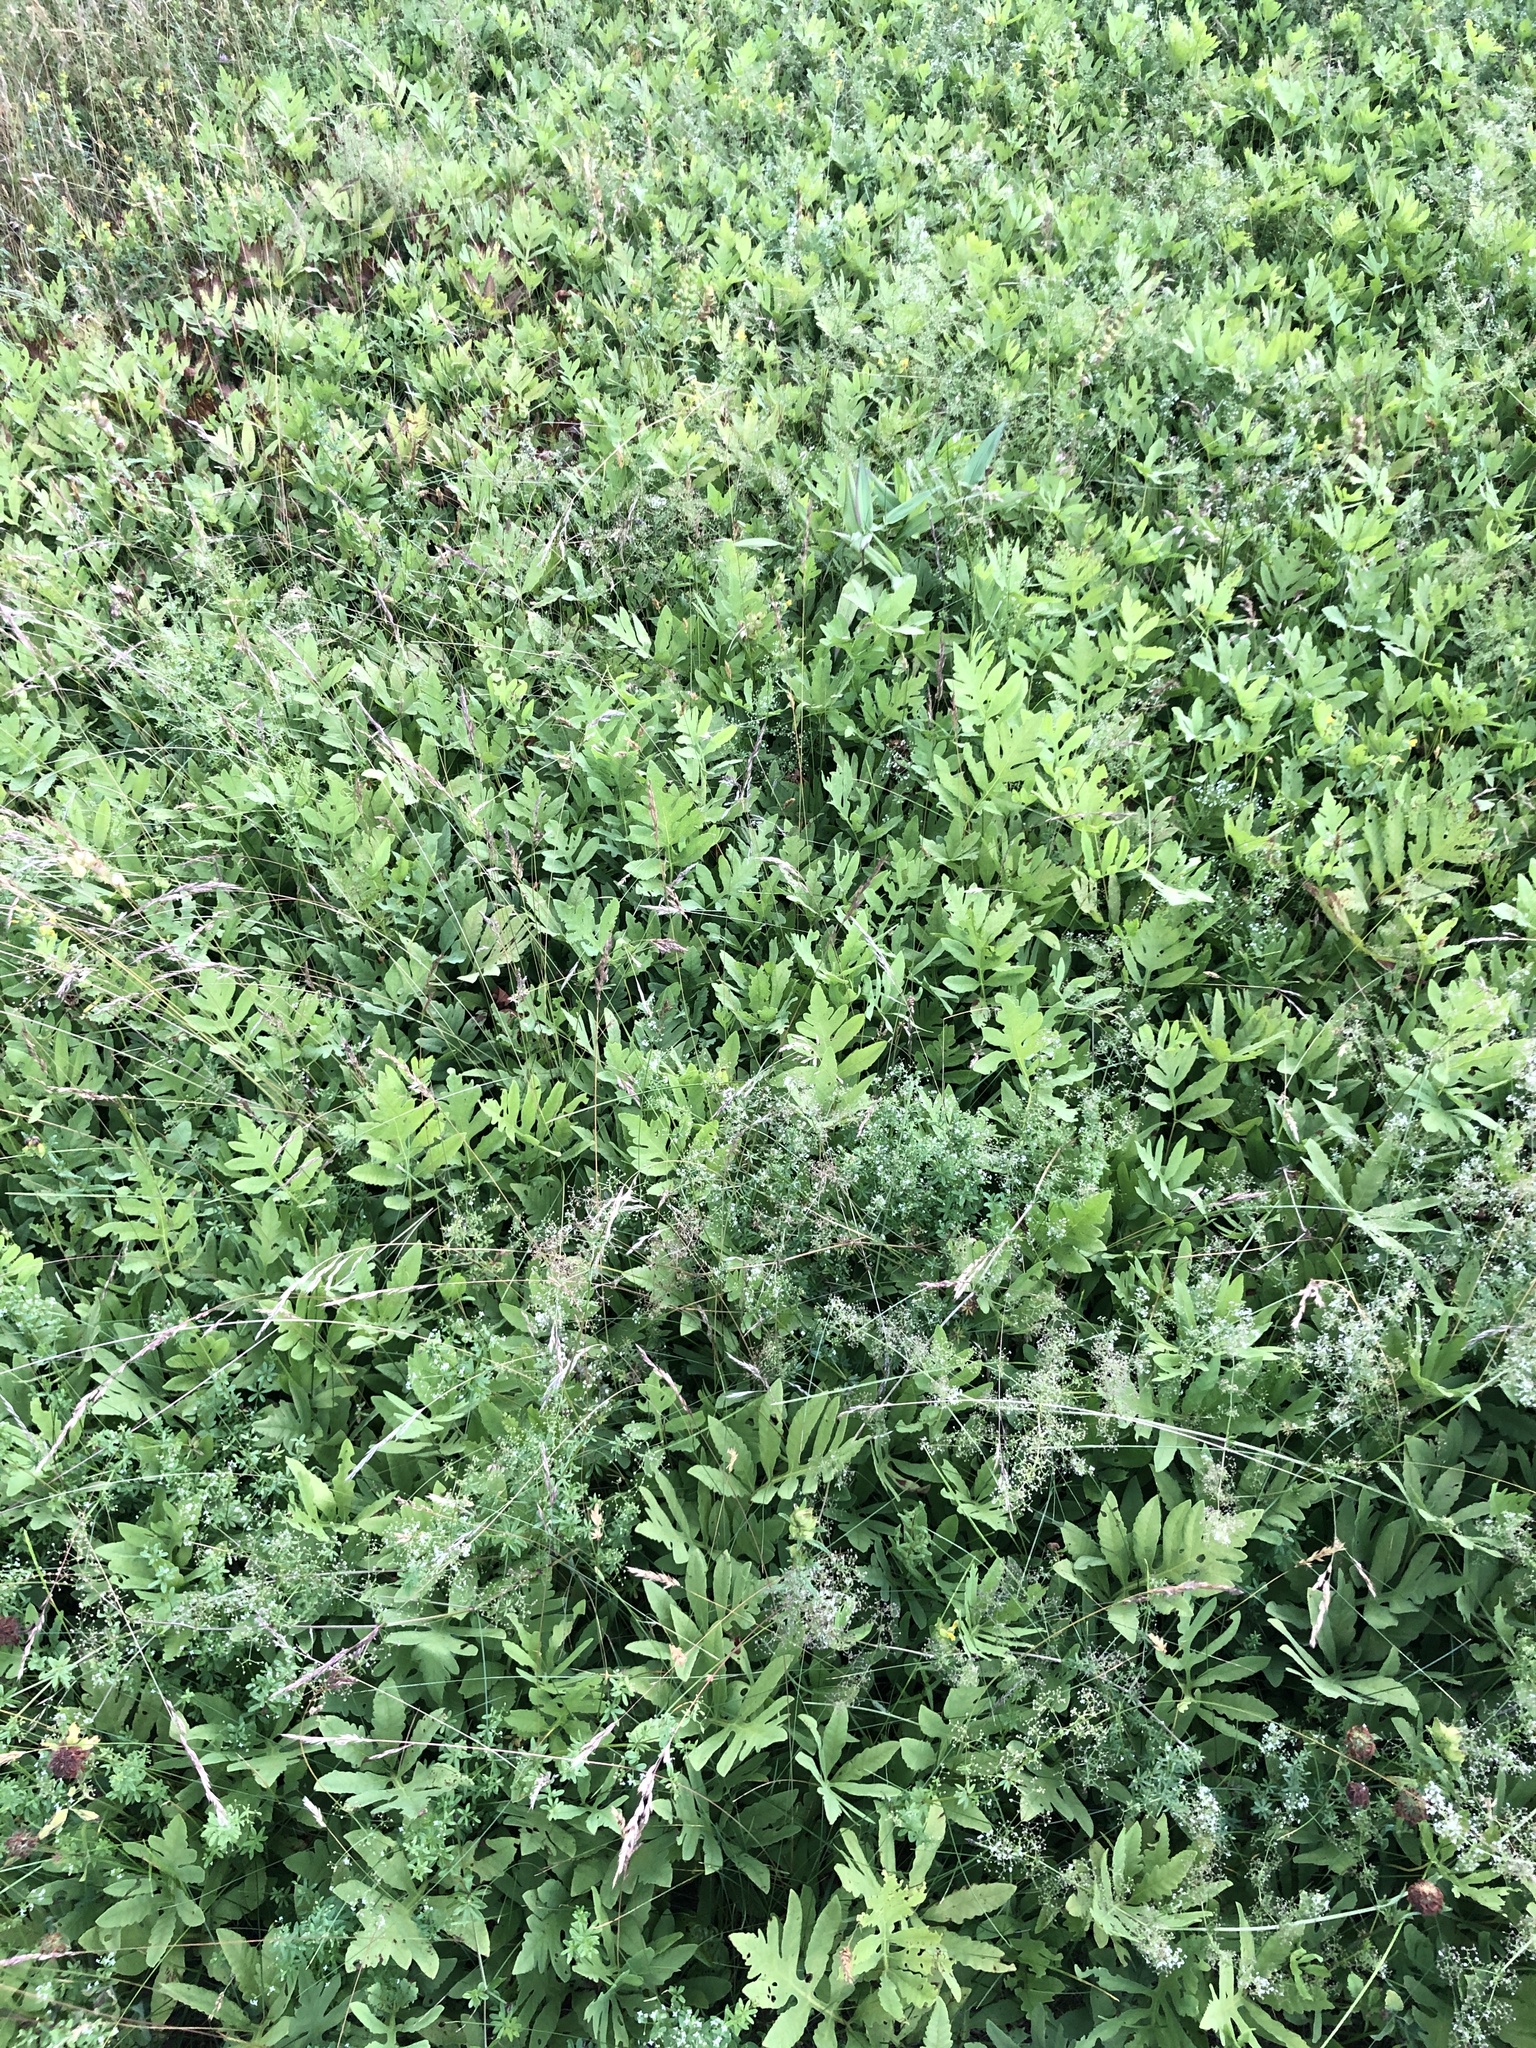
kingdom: Plantae
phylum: Tracheophyta
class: Polypodiopsida
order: Polypodiales
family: Onocleaceae
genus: Onoclea
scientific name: Onoclea sensibilis
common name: Sensitive fern
